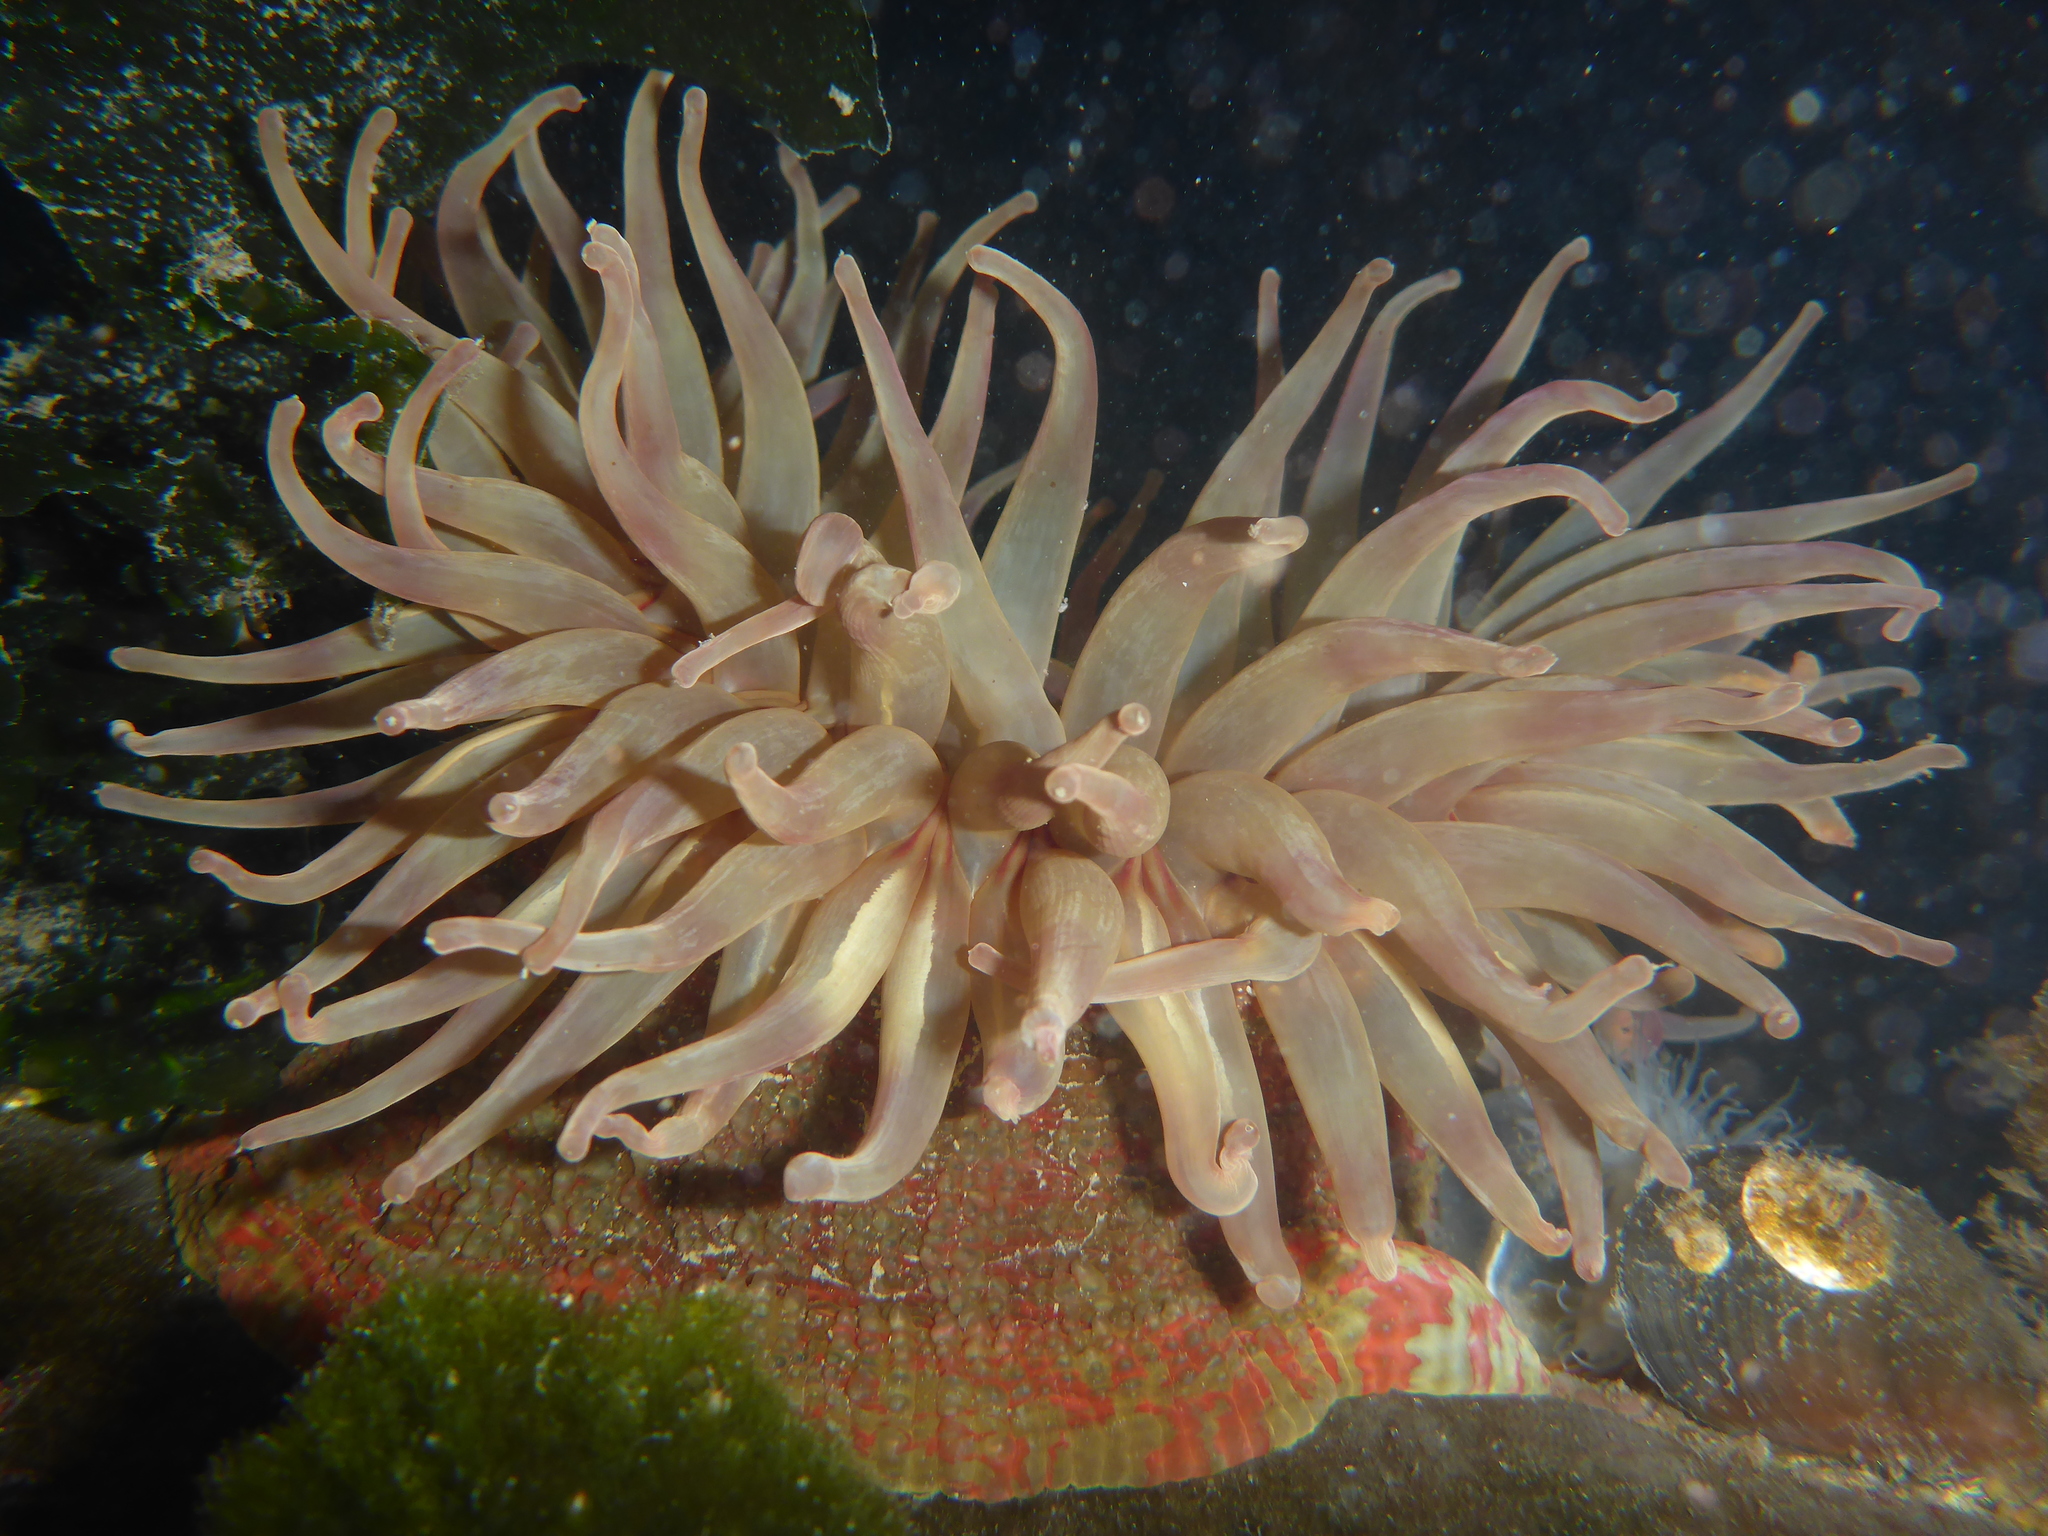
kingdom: Animalia
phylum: Cnidaria
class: Anthozoa
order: Actiniaria
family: Actiniidae
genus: Urticina
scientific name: Urticina grebelnyi
